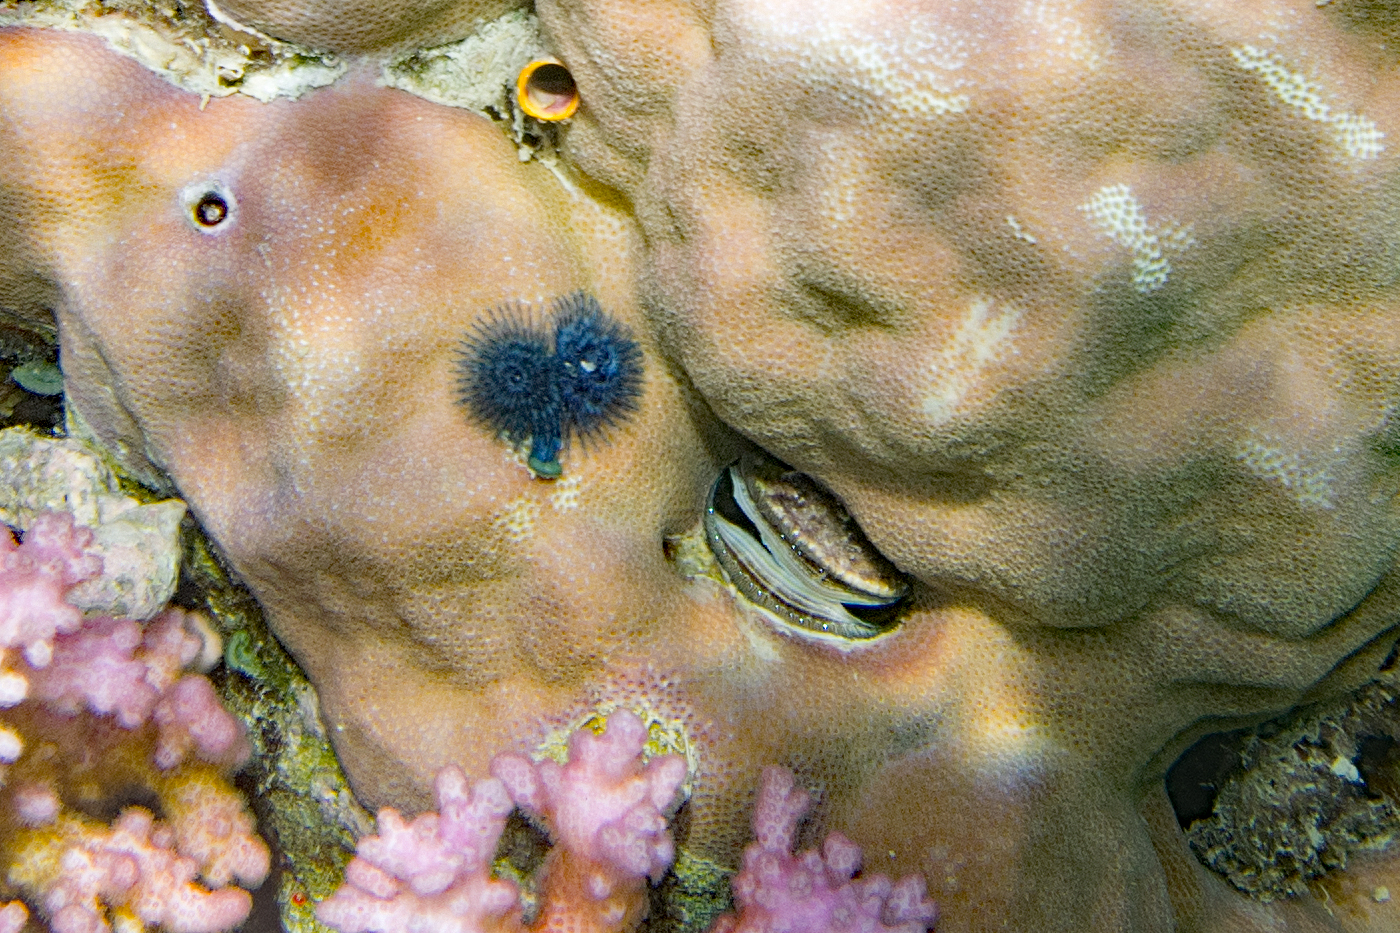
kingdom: Animalia
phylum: Mollusca
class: Bivalvia
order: Pectinida
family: Pectinidae
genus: Pedum
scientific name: Pedum spondyloideum
